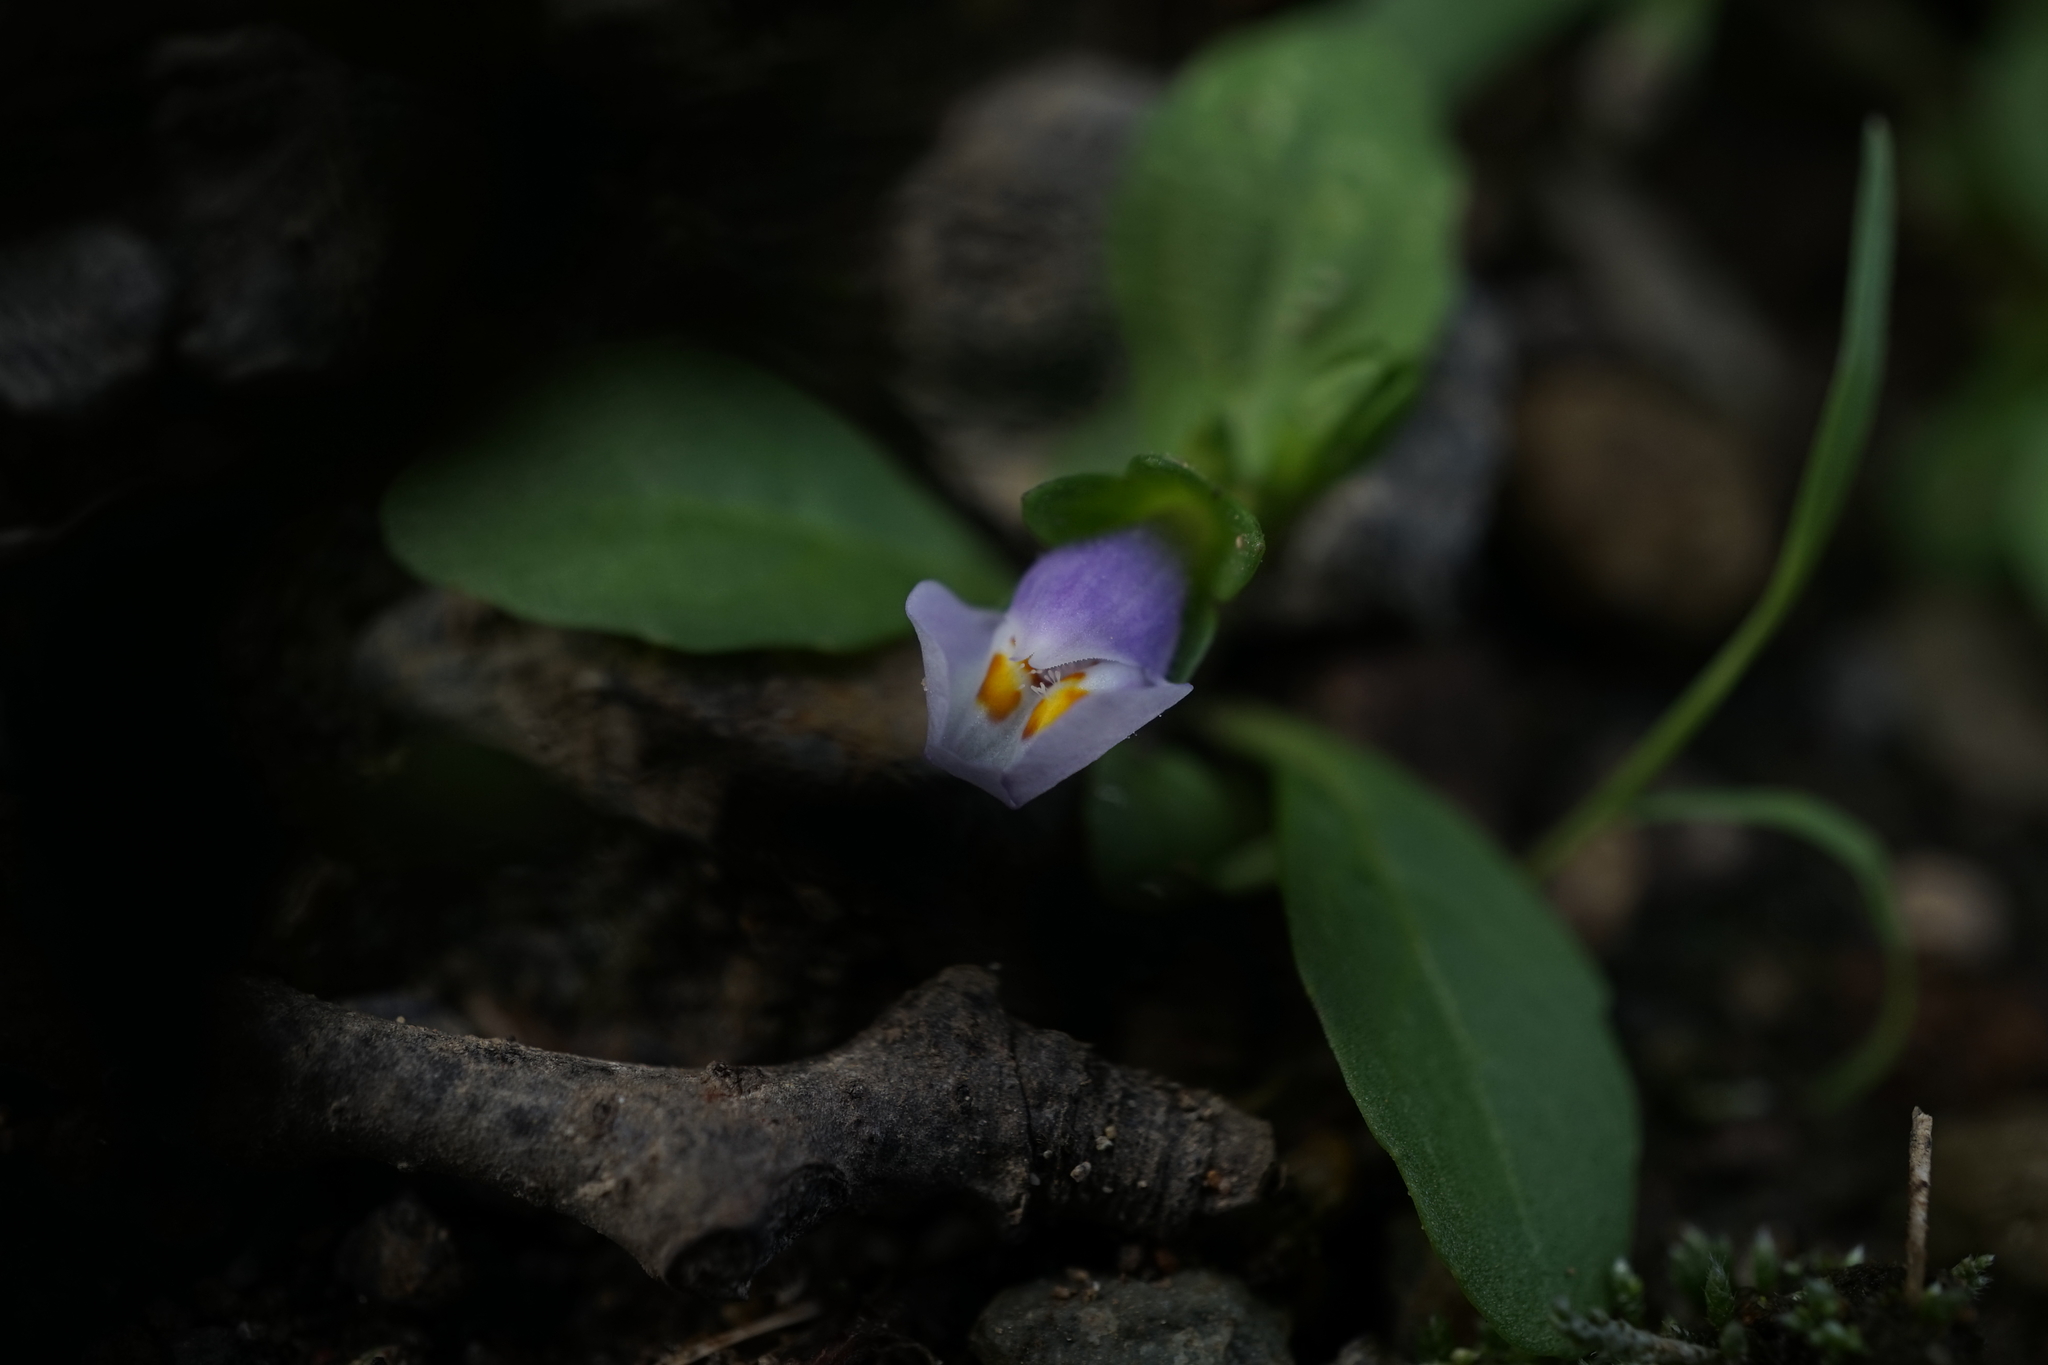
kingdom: Plantae
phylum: Tracheophyta
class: Magnoliopsida
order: Lamiales
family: Mazaceae
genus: Mazus
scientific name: Mazus pumilus
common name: Japanese mazus
